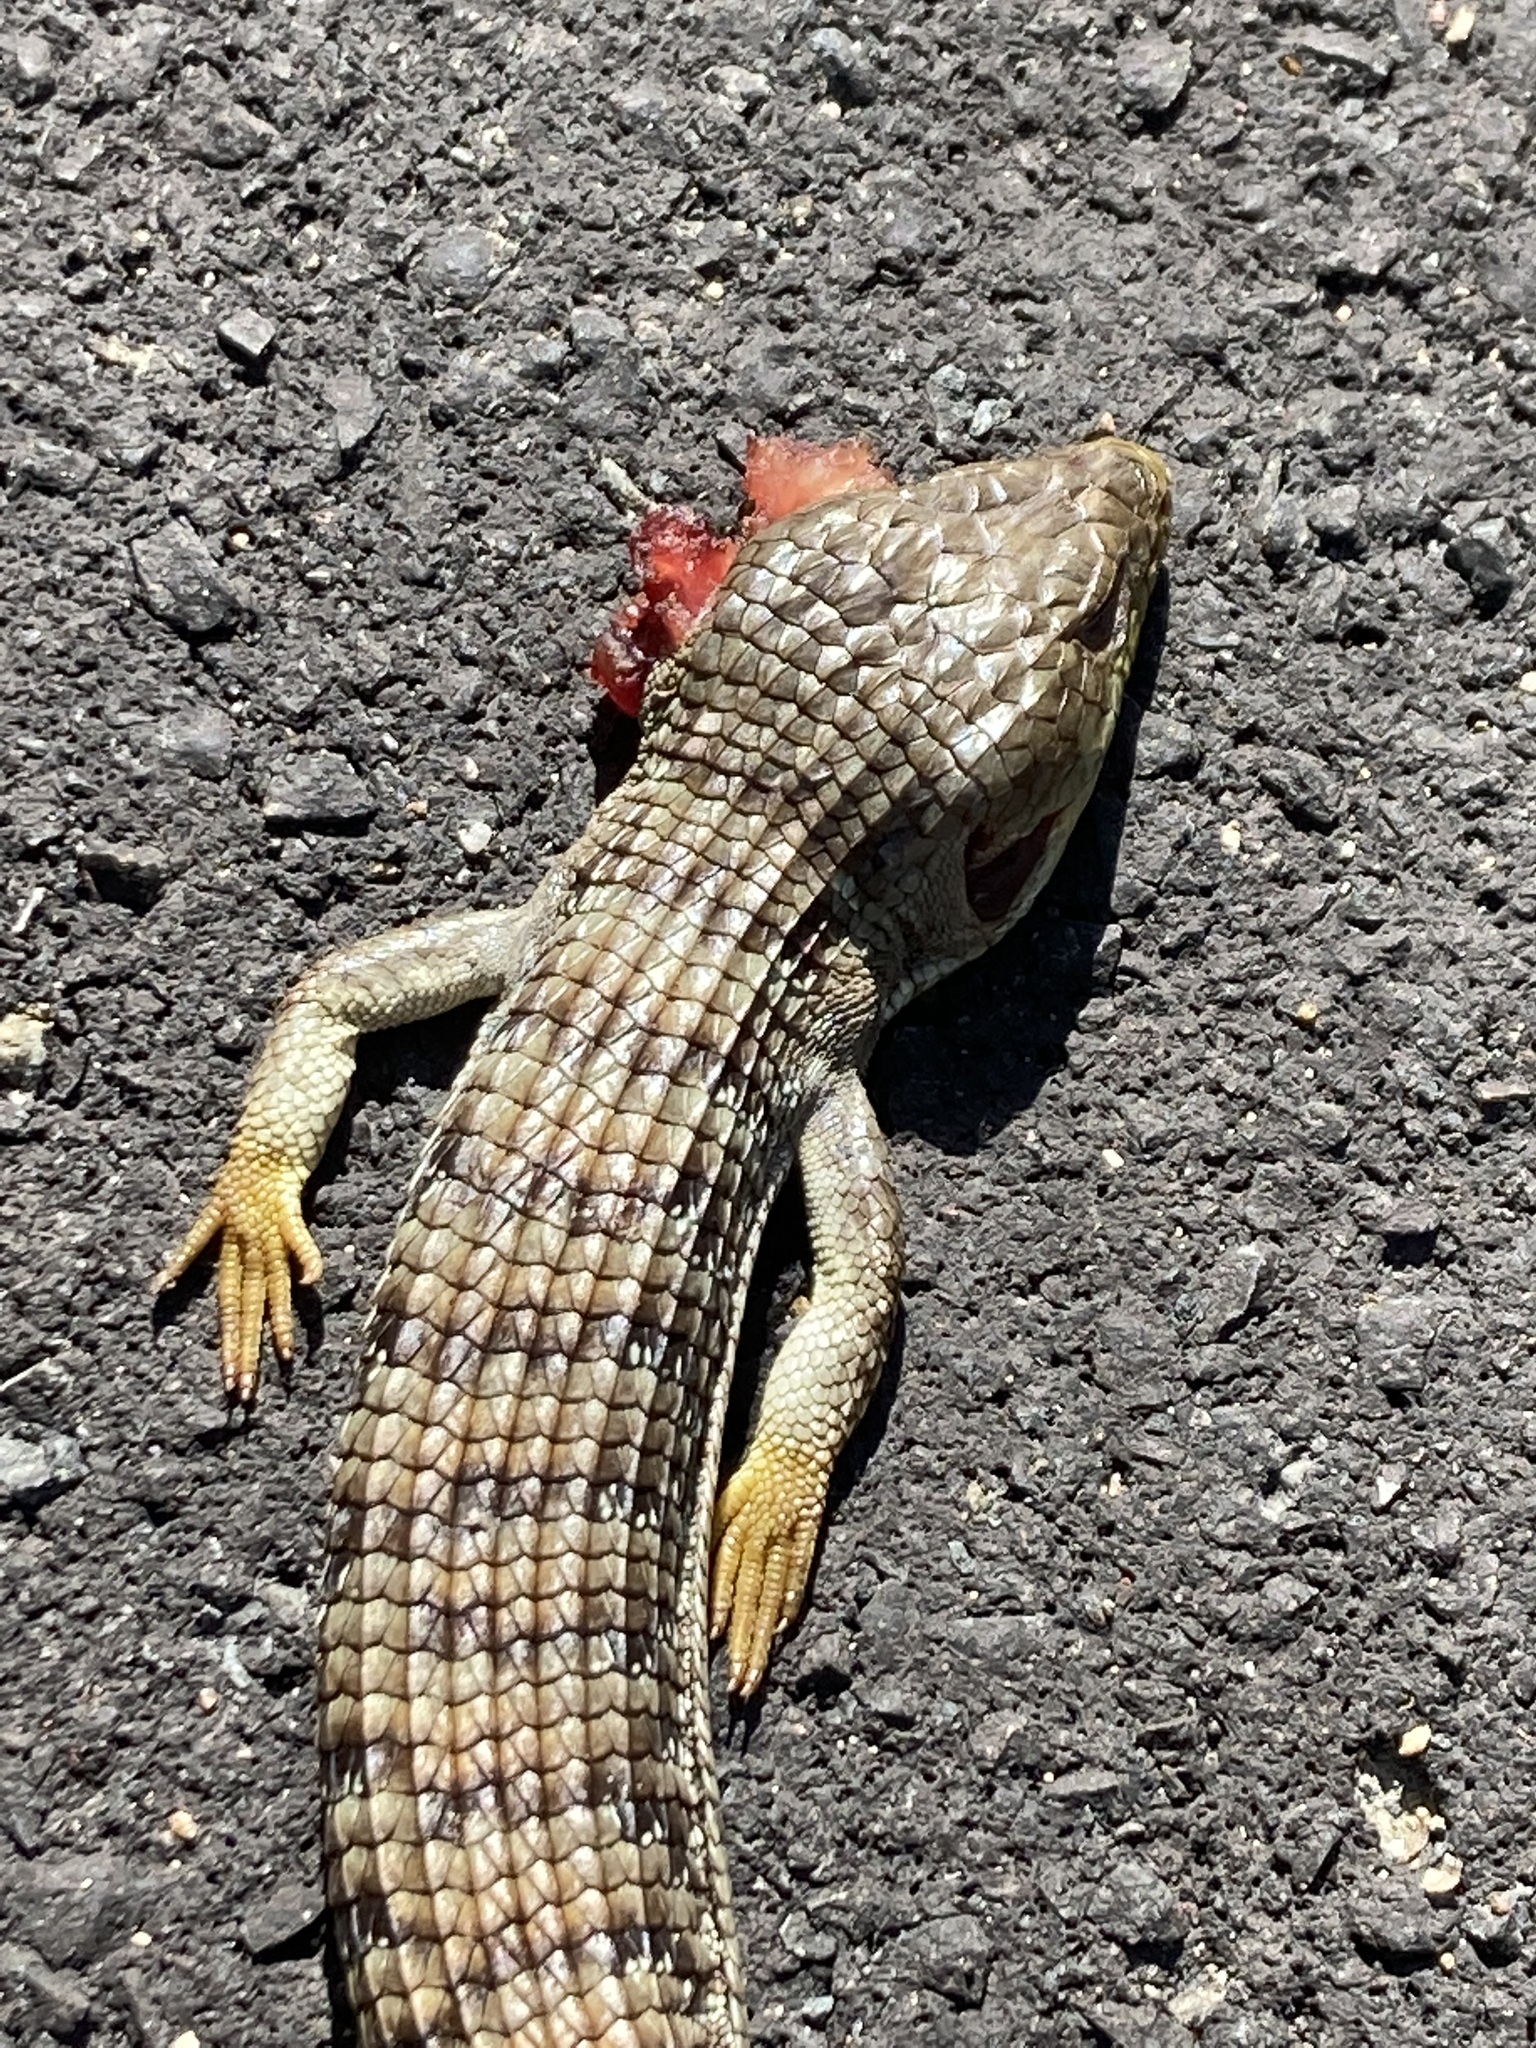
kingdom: Animalia
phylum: Chordata
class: Squamata
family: Anguidae
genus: Elgaria
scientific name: Elgaria multicarinata
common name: Southern alligator lizard
